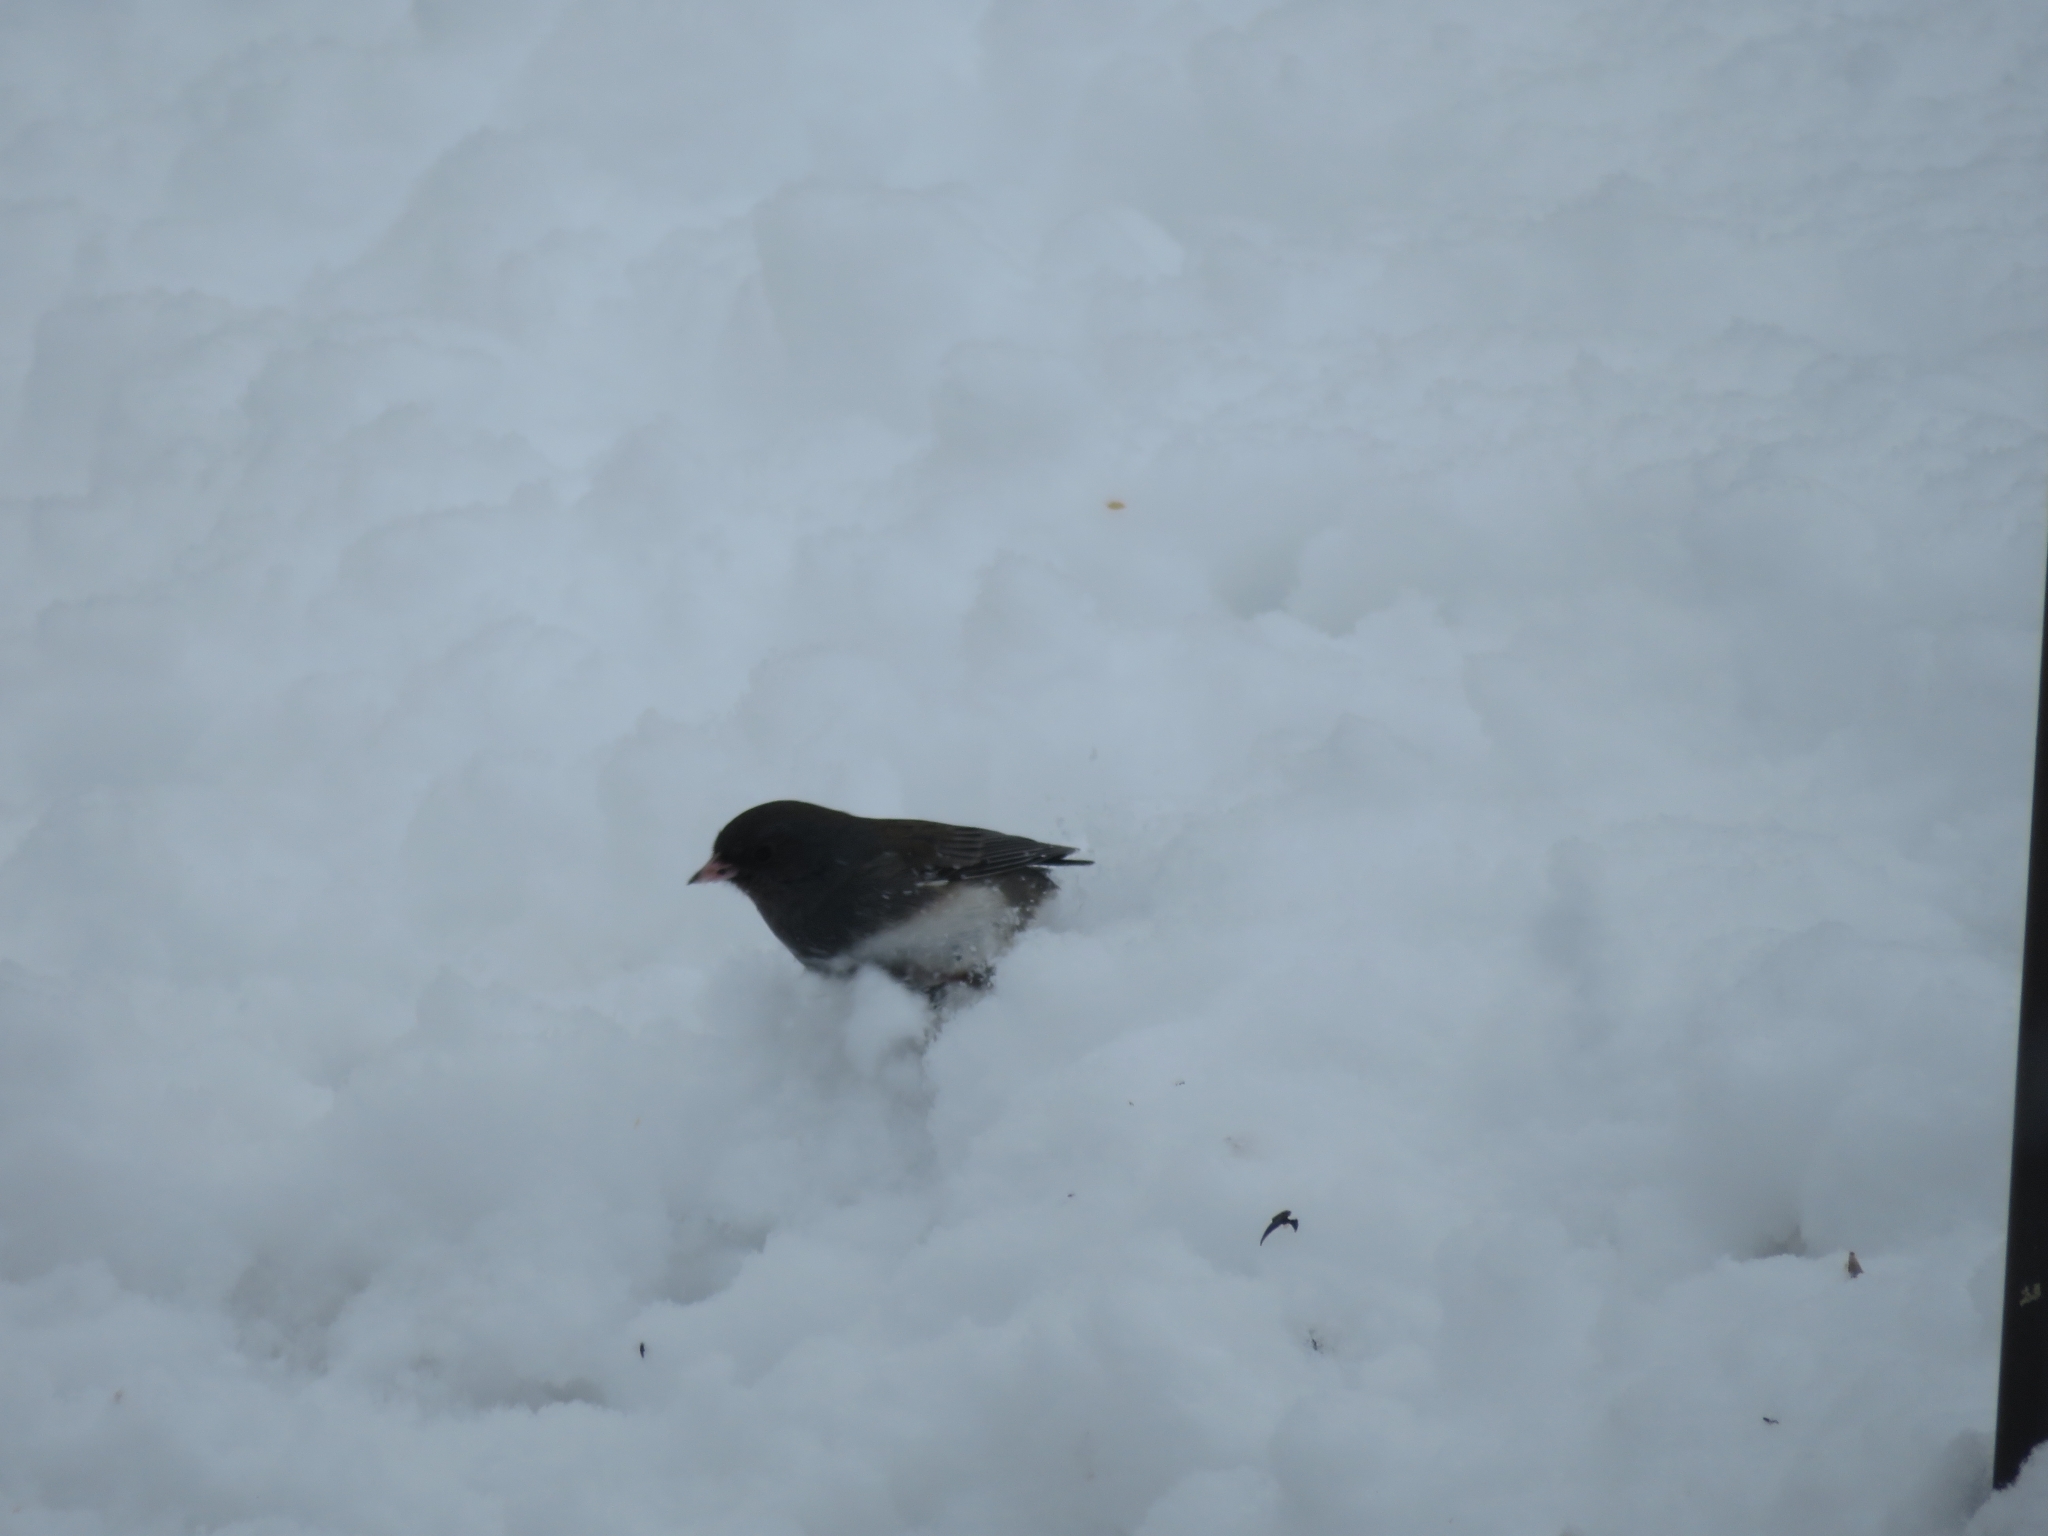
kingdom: Animalia
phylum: Chordata
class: Aves
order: Passeriformes
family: Passerellidae
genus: Junco
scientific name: Junco hyemalis
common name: Dark-eyed junco
